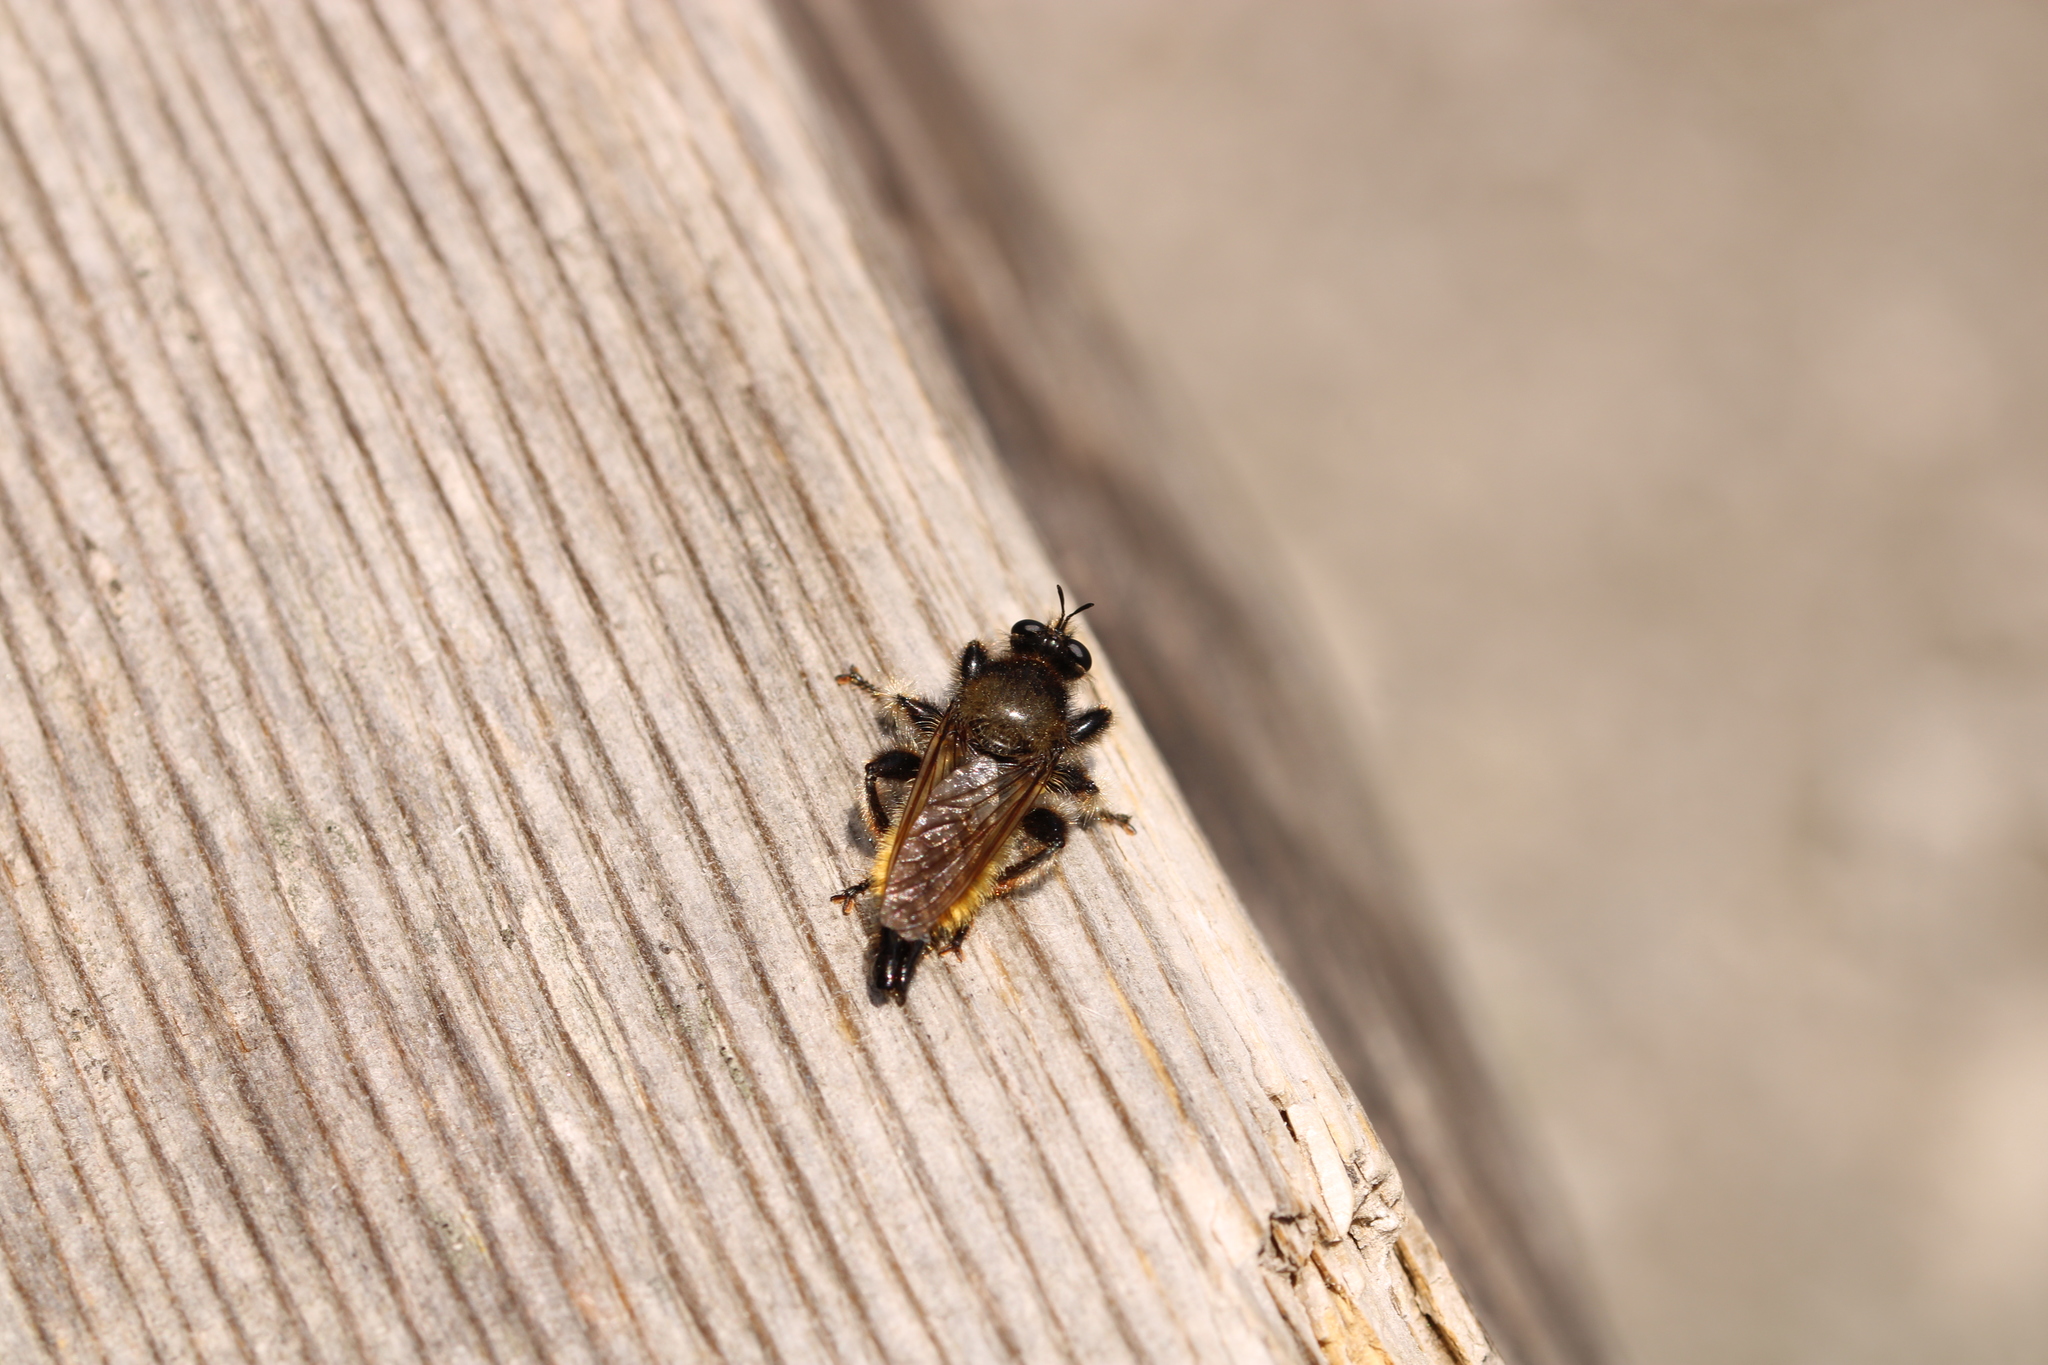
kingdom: Animalia
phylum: Arthropoda
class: Insecta
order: Diptera
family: Asilidae
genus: Laphria
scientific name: Laphria flava
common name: Bumblebee robberfly
